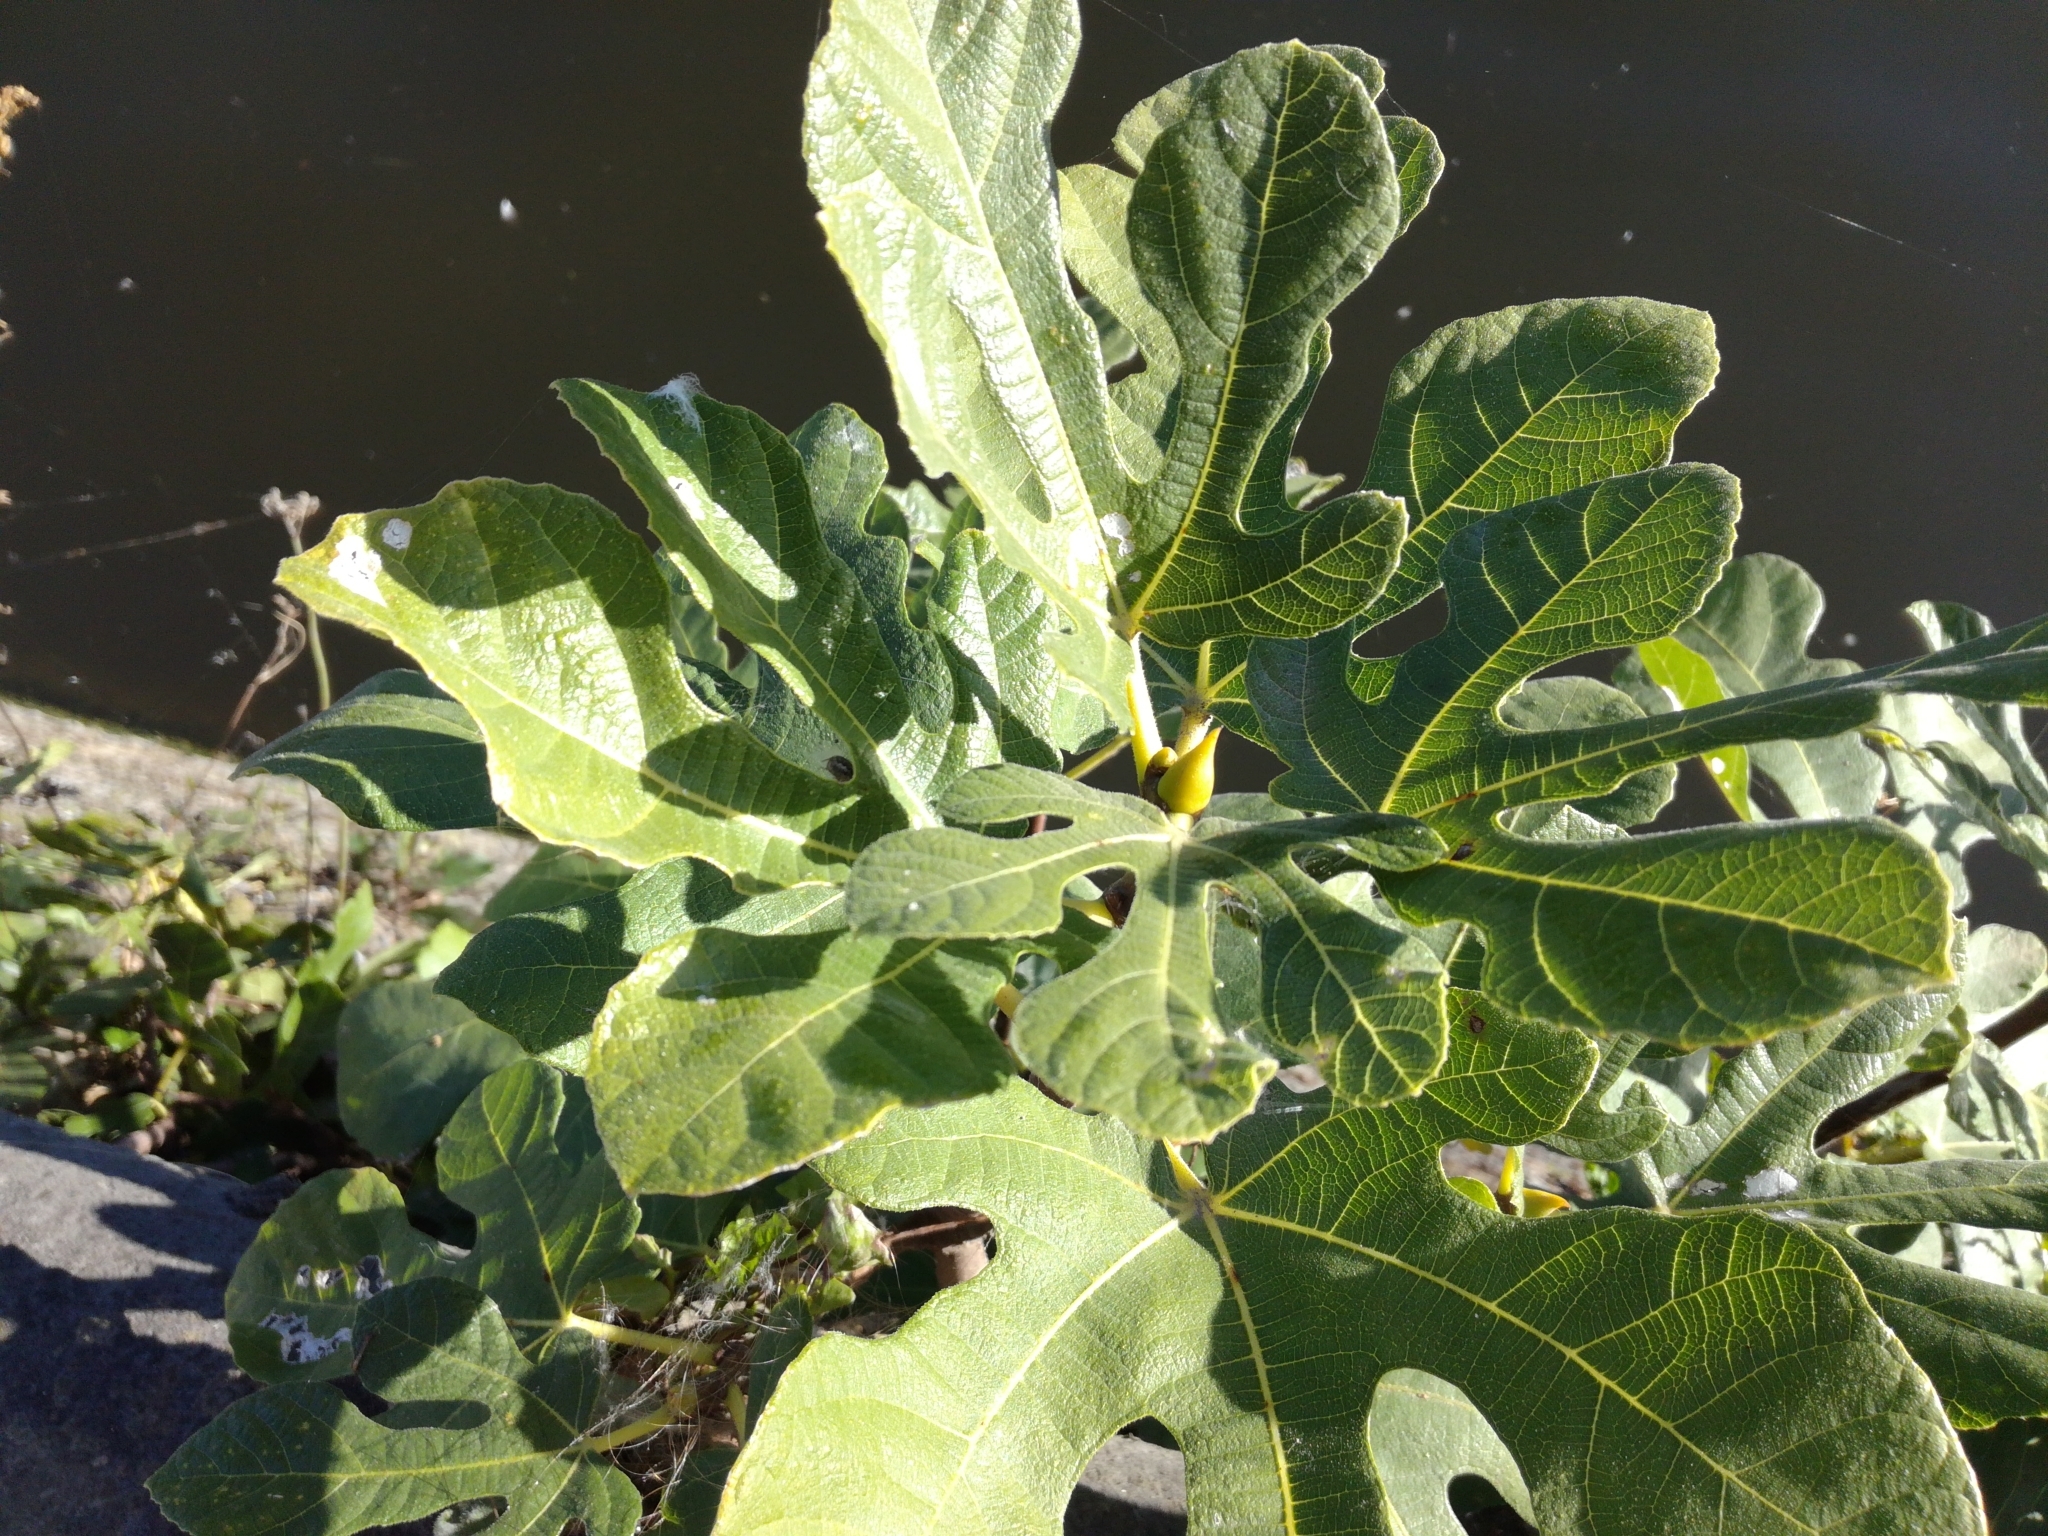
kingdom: Plantae
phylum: Tracheophyta
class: Magnoliopsida
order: Rosales
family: Moraceae
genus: Ficus
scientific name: Ficus carica
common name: Fig
